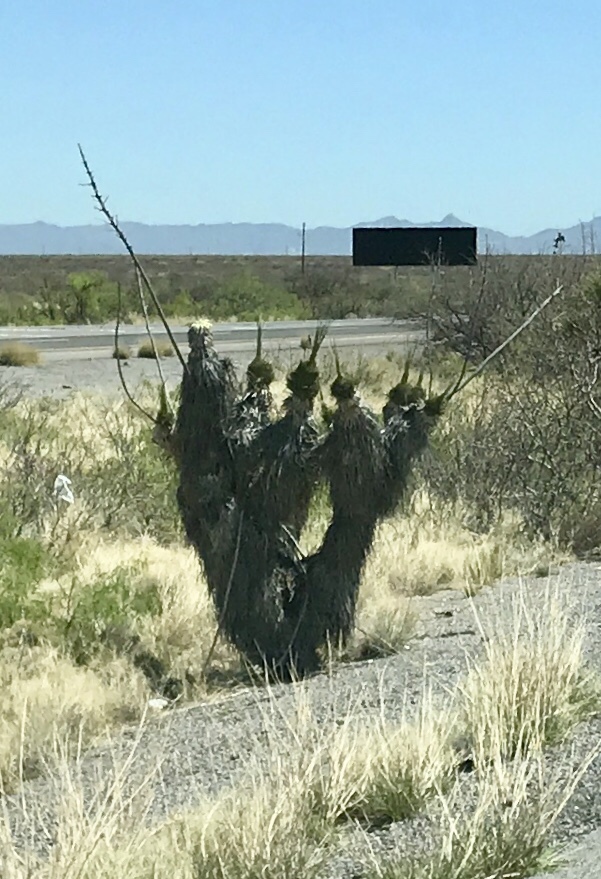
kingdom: Plantae
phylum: Tracheophyta
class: Liliopsida
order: Asparagales
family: Asparagaceae
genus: Yucca
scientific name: Yucca elata
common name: Palmella
